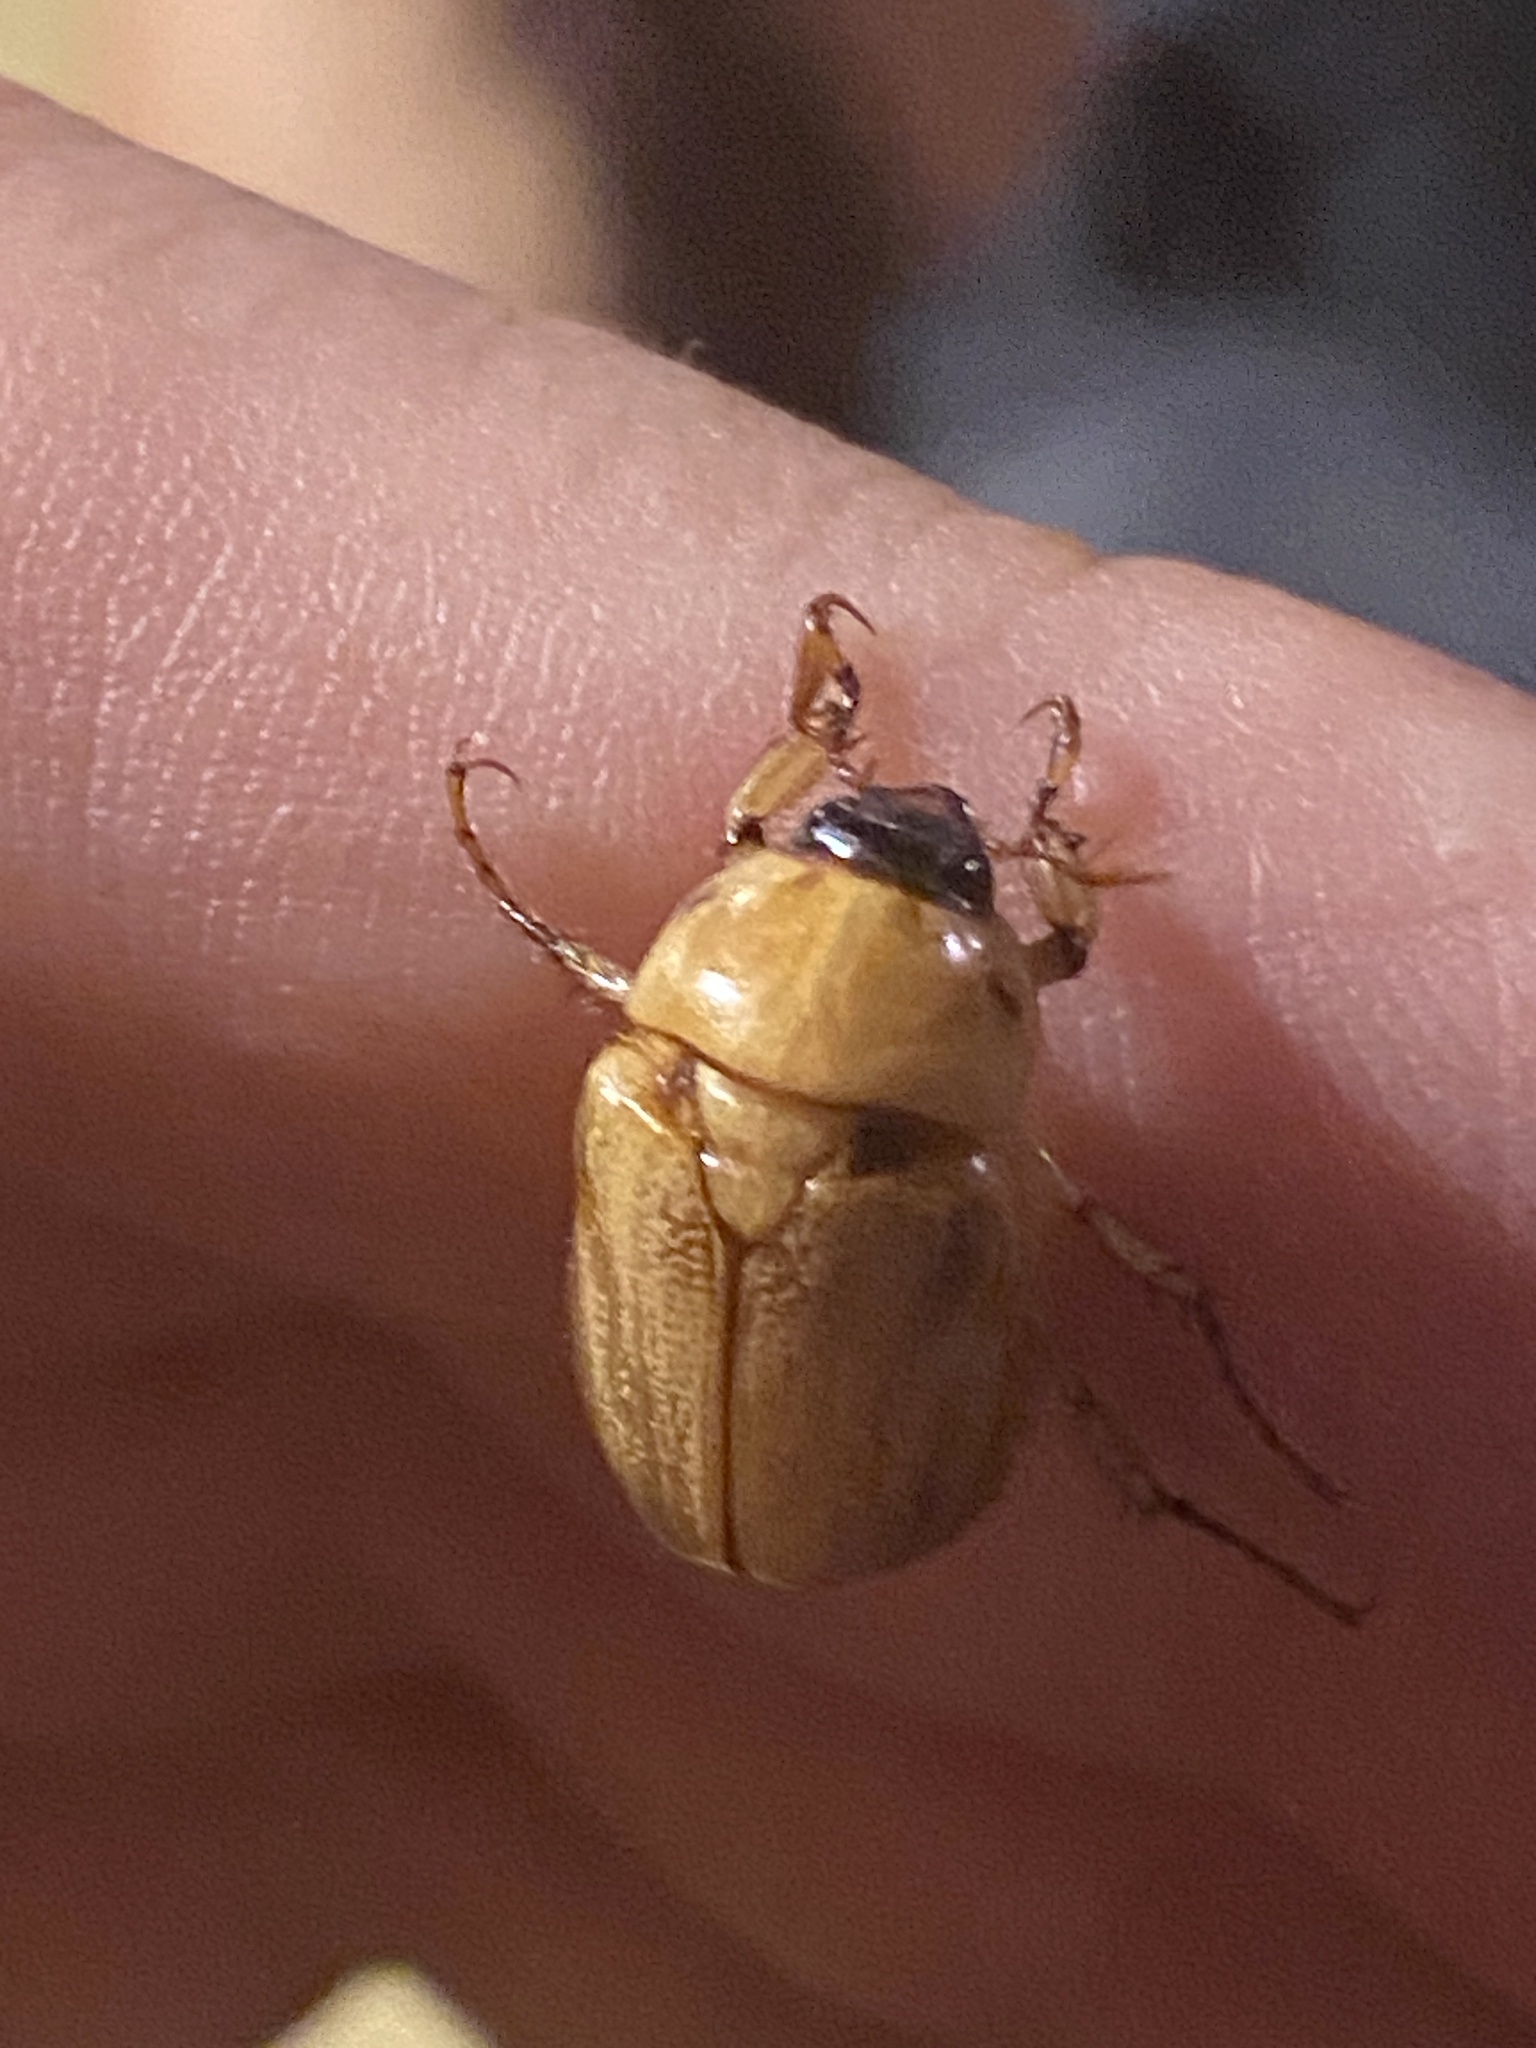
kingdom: Animalia
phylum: Arthropoda
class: Insecta
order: Coleoptera
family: Scarabaeidae
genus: Cyclocephala
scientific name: Cyclocephala putrida
